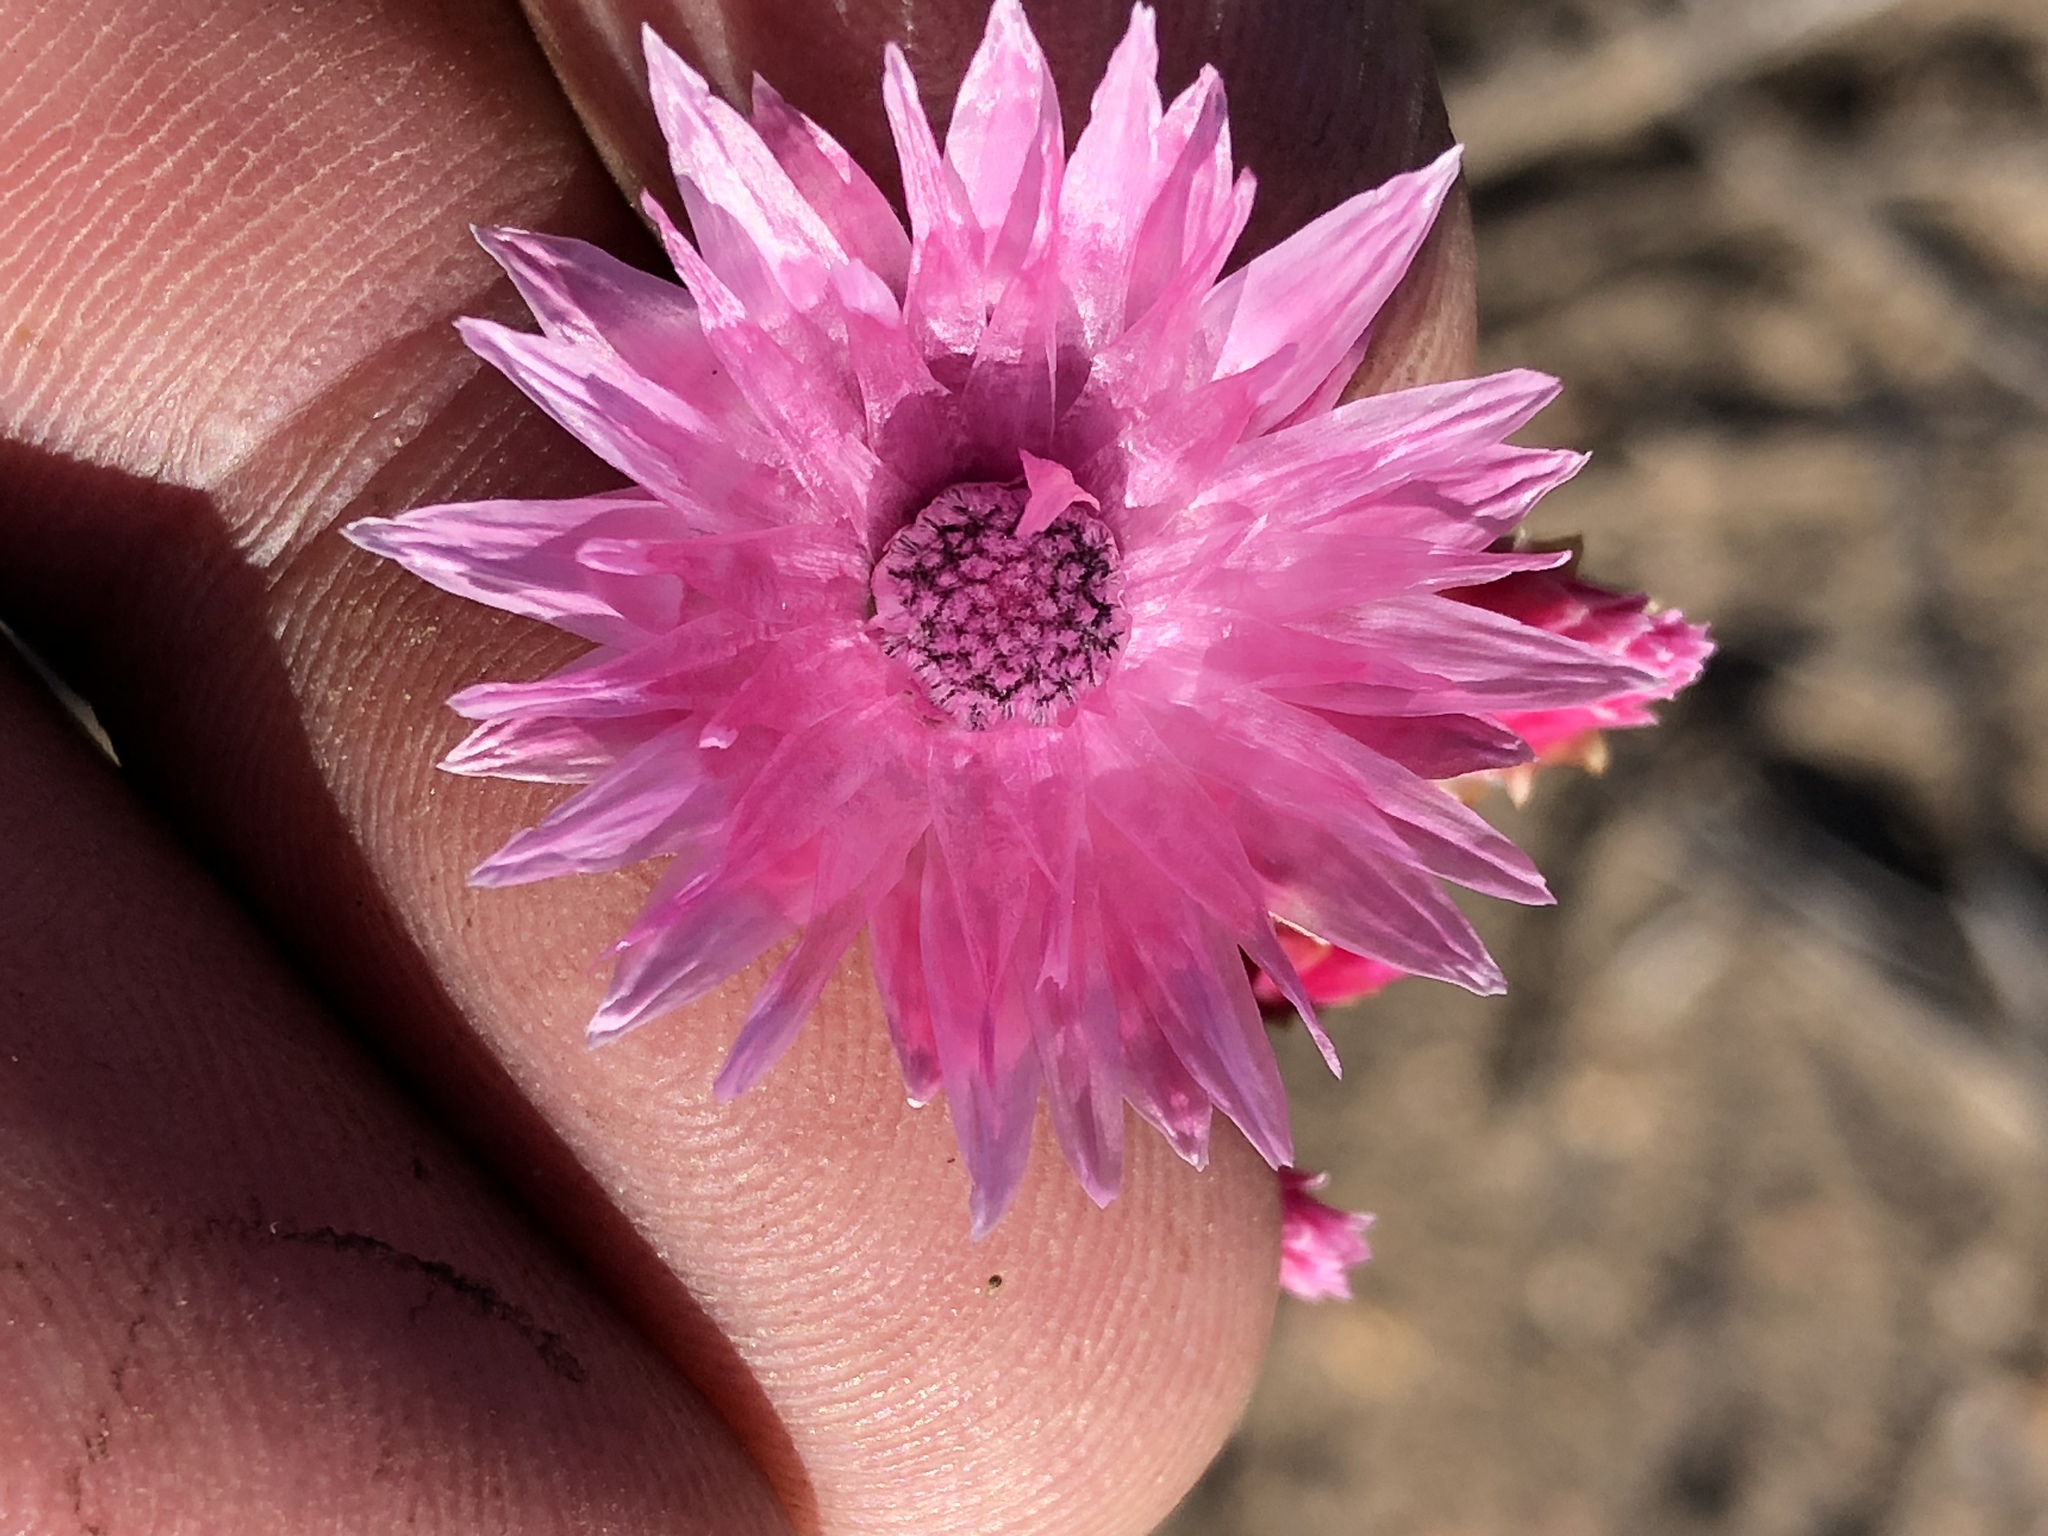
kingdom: Plantae
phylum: Tracheophyta
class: Magnoliopsida
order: Asterales
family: Asteraceae
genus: Syncarpha
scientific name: Syncarpha canescens
